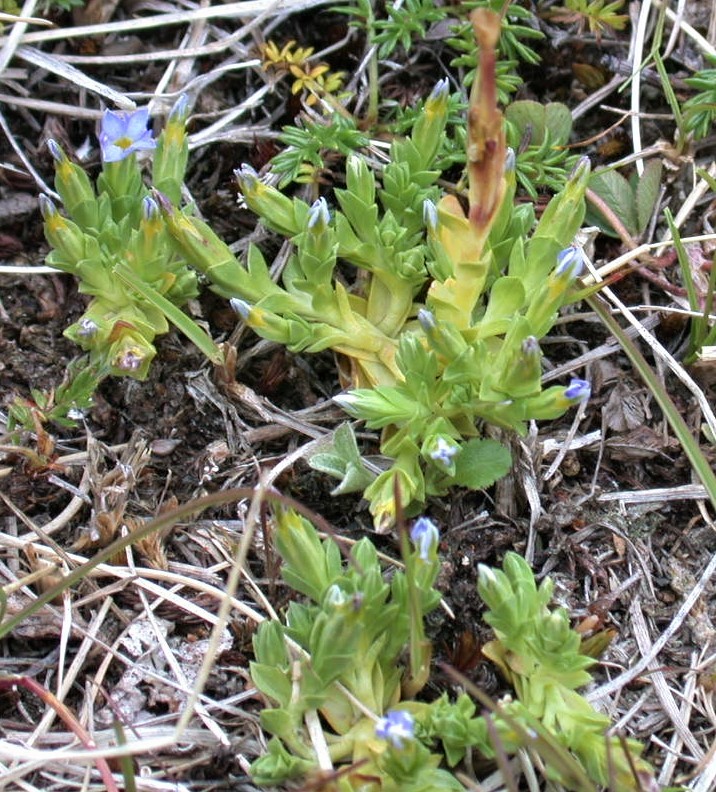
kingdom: Plantae
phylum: Tracheophyta
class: Magnoliopsida
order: Gentianales
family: Gentianaceae
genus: Gentiana
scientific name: Gentiana prostrata
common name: Moss gentian
